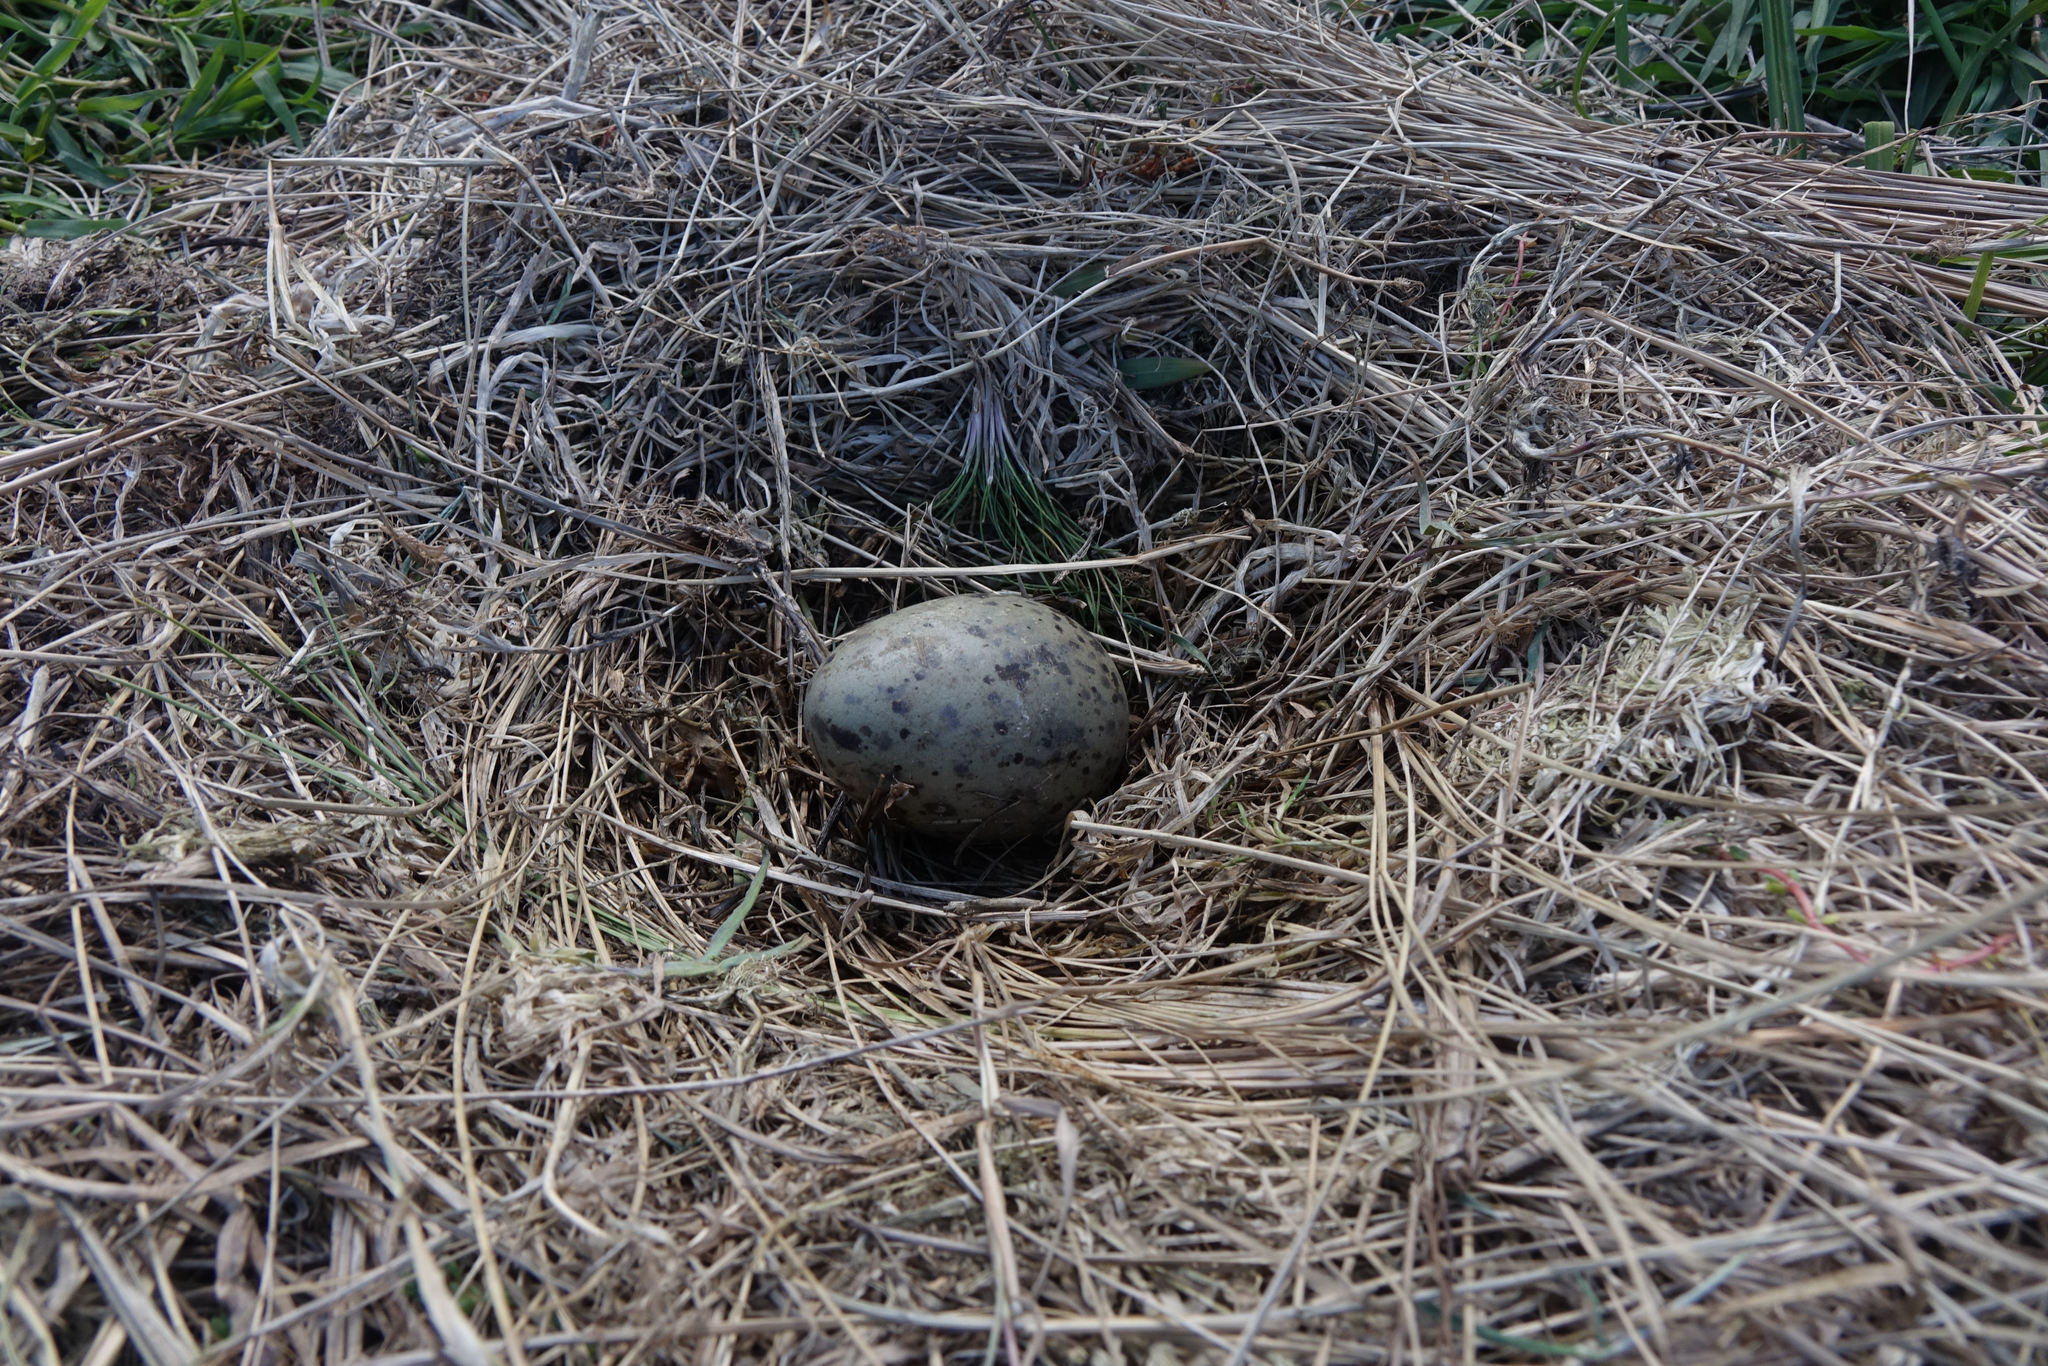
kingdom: Animalia
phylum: Chordata
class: Aves
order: Charadriiformes
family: Laridae
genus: Larus
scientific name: Larus dominicanus
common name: Kelp gull
